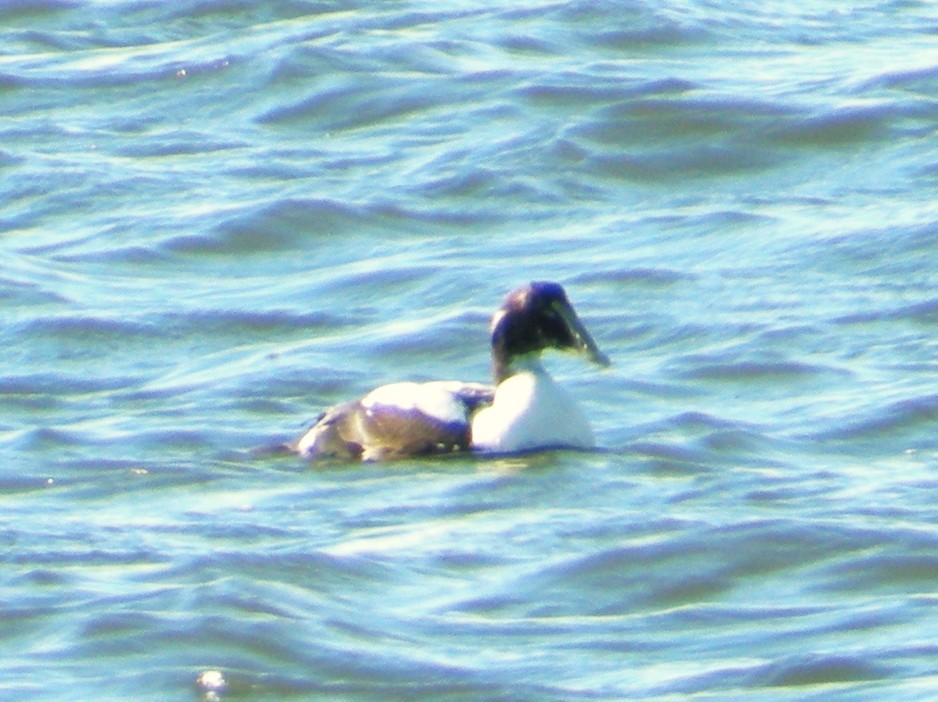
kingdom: Animalia
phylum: Chordata
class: Aves
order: Anseriformes
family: Anatidae
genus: Somateria
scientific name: Somateria mollissima
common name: Common eider
